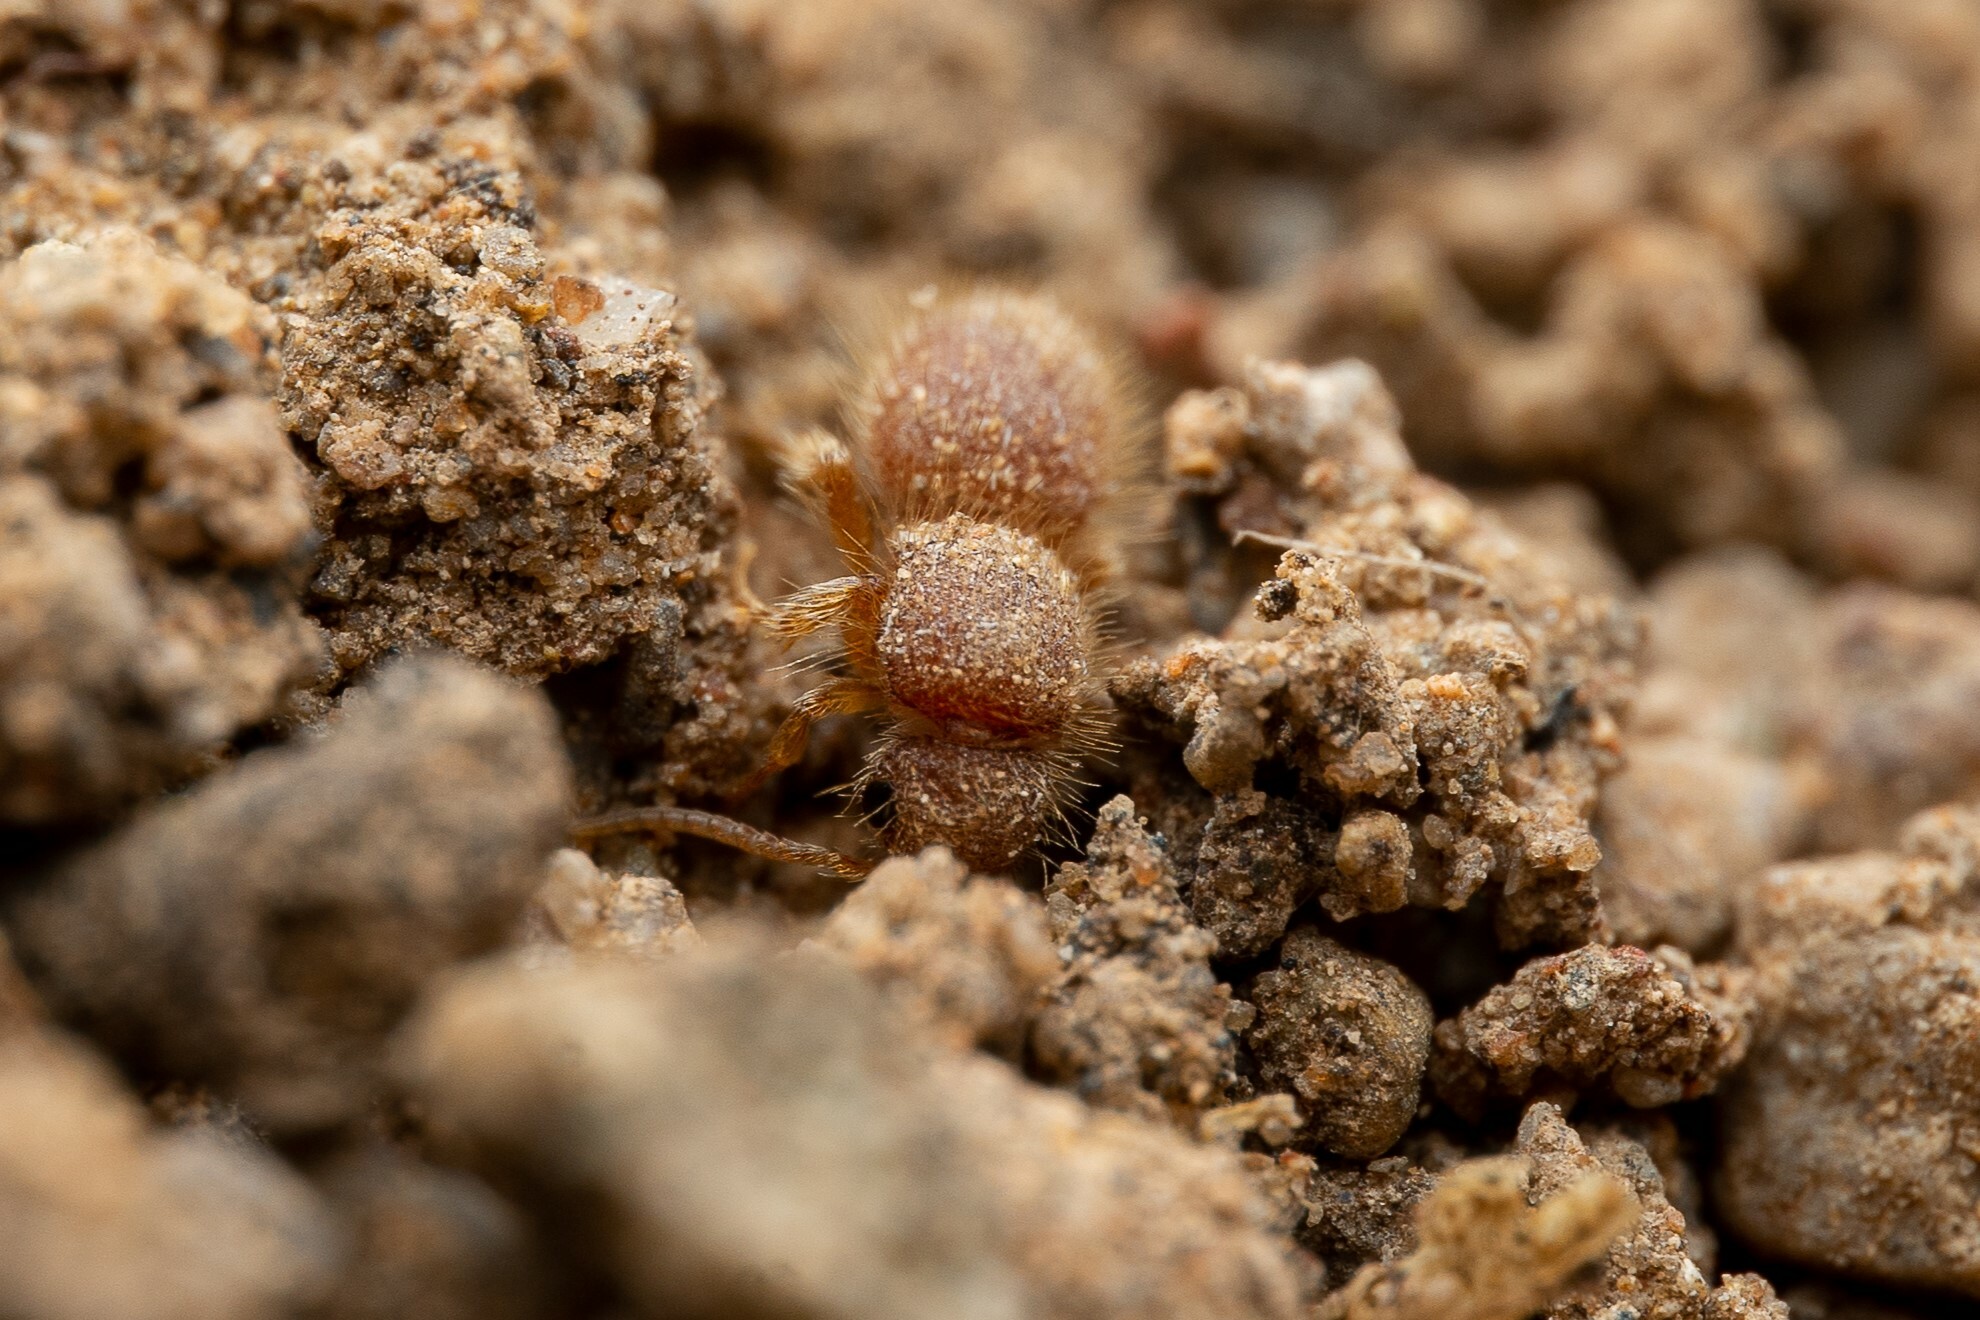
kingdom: Animalia
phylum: Arthropoda
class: Insecta
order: Hymenoptera
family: Mutillidae
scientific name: Mutillidae
